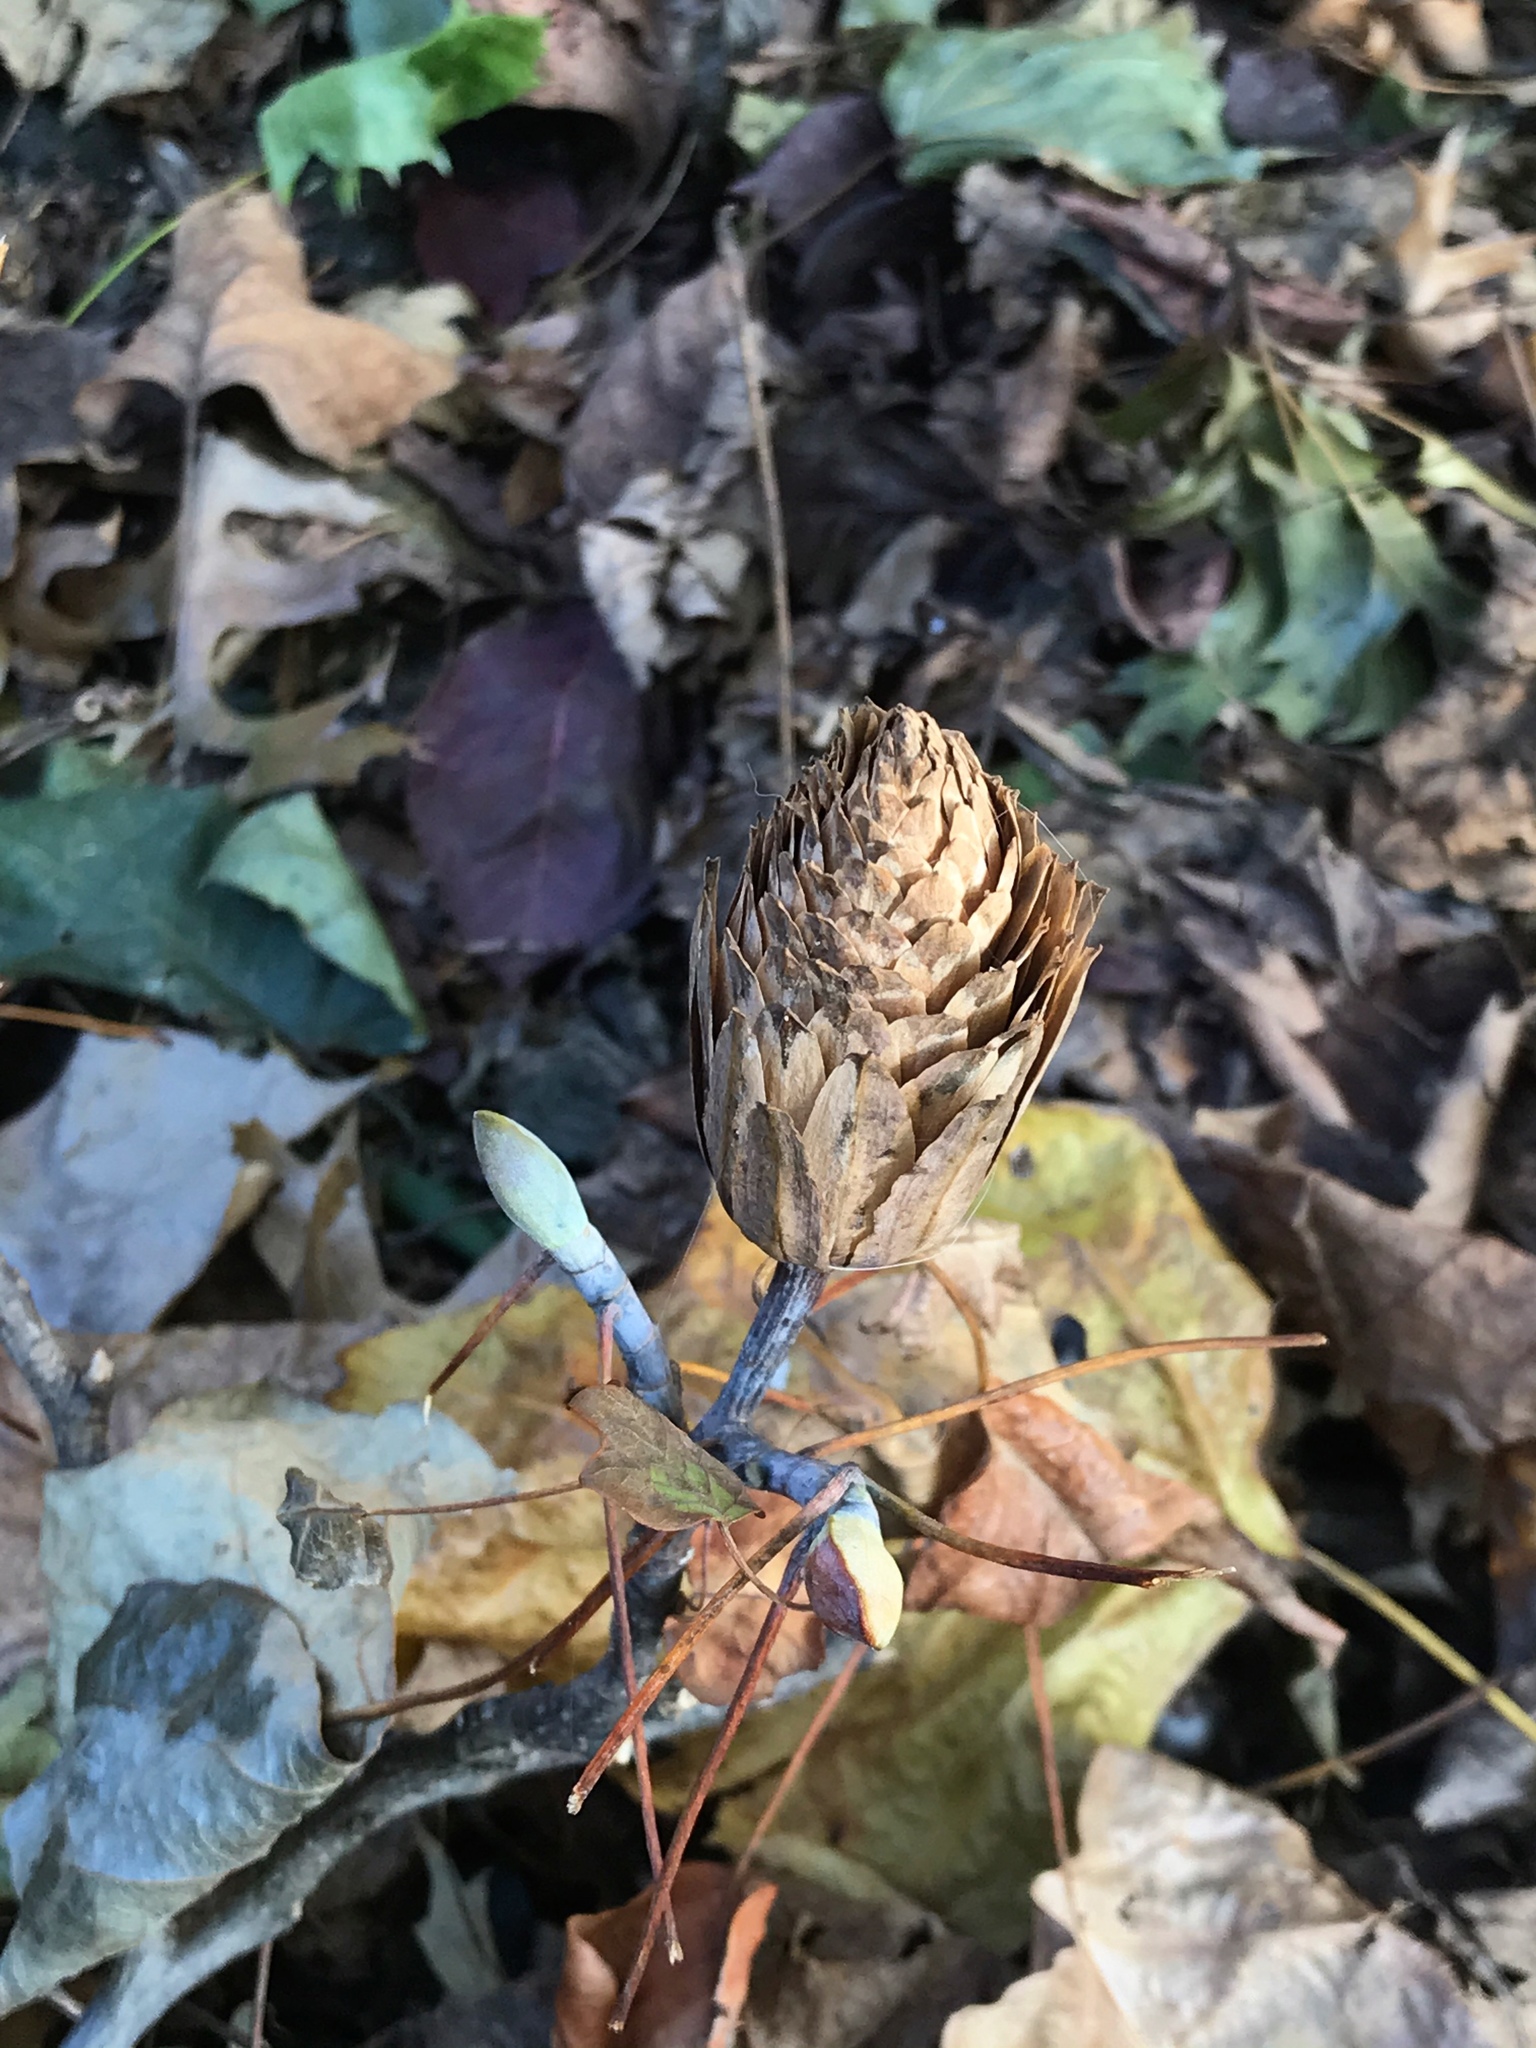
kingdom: Plantae
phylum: Tracheophyta
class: Magnoliopsida
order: Magnoliales
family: Magnoliaceae
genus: Liriodendron
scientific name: Liriodendron tulipifera
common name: Tulip tree
